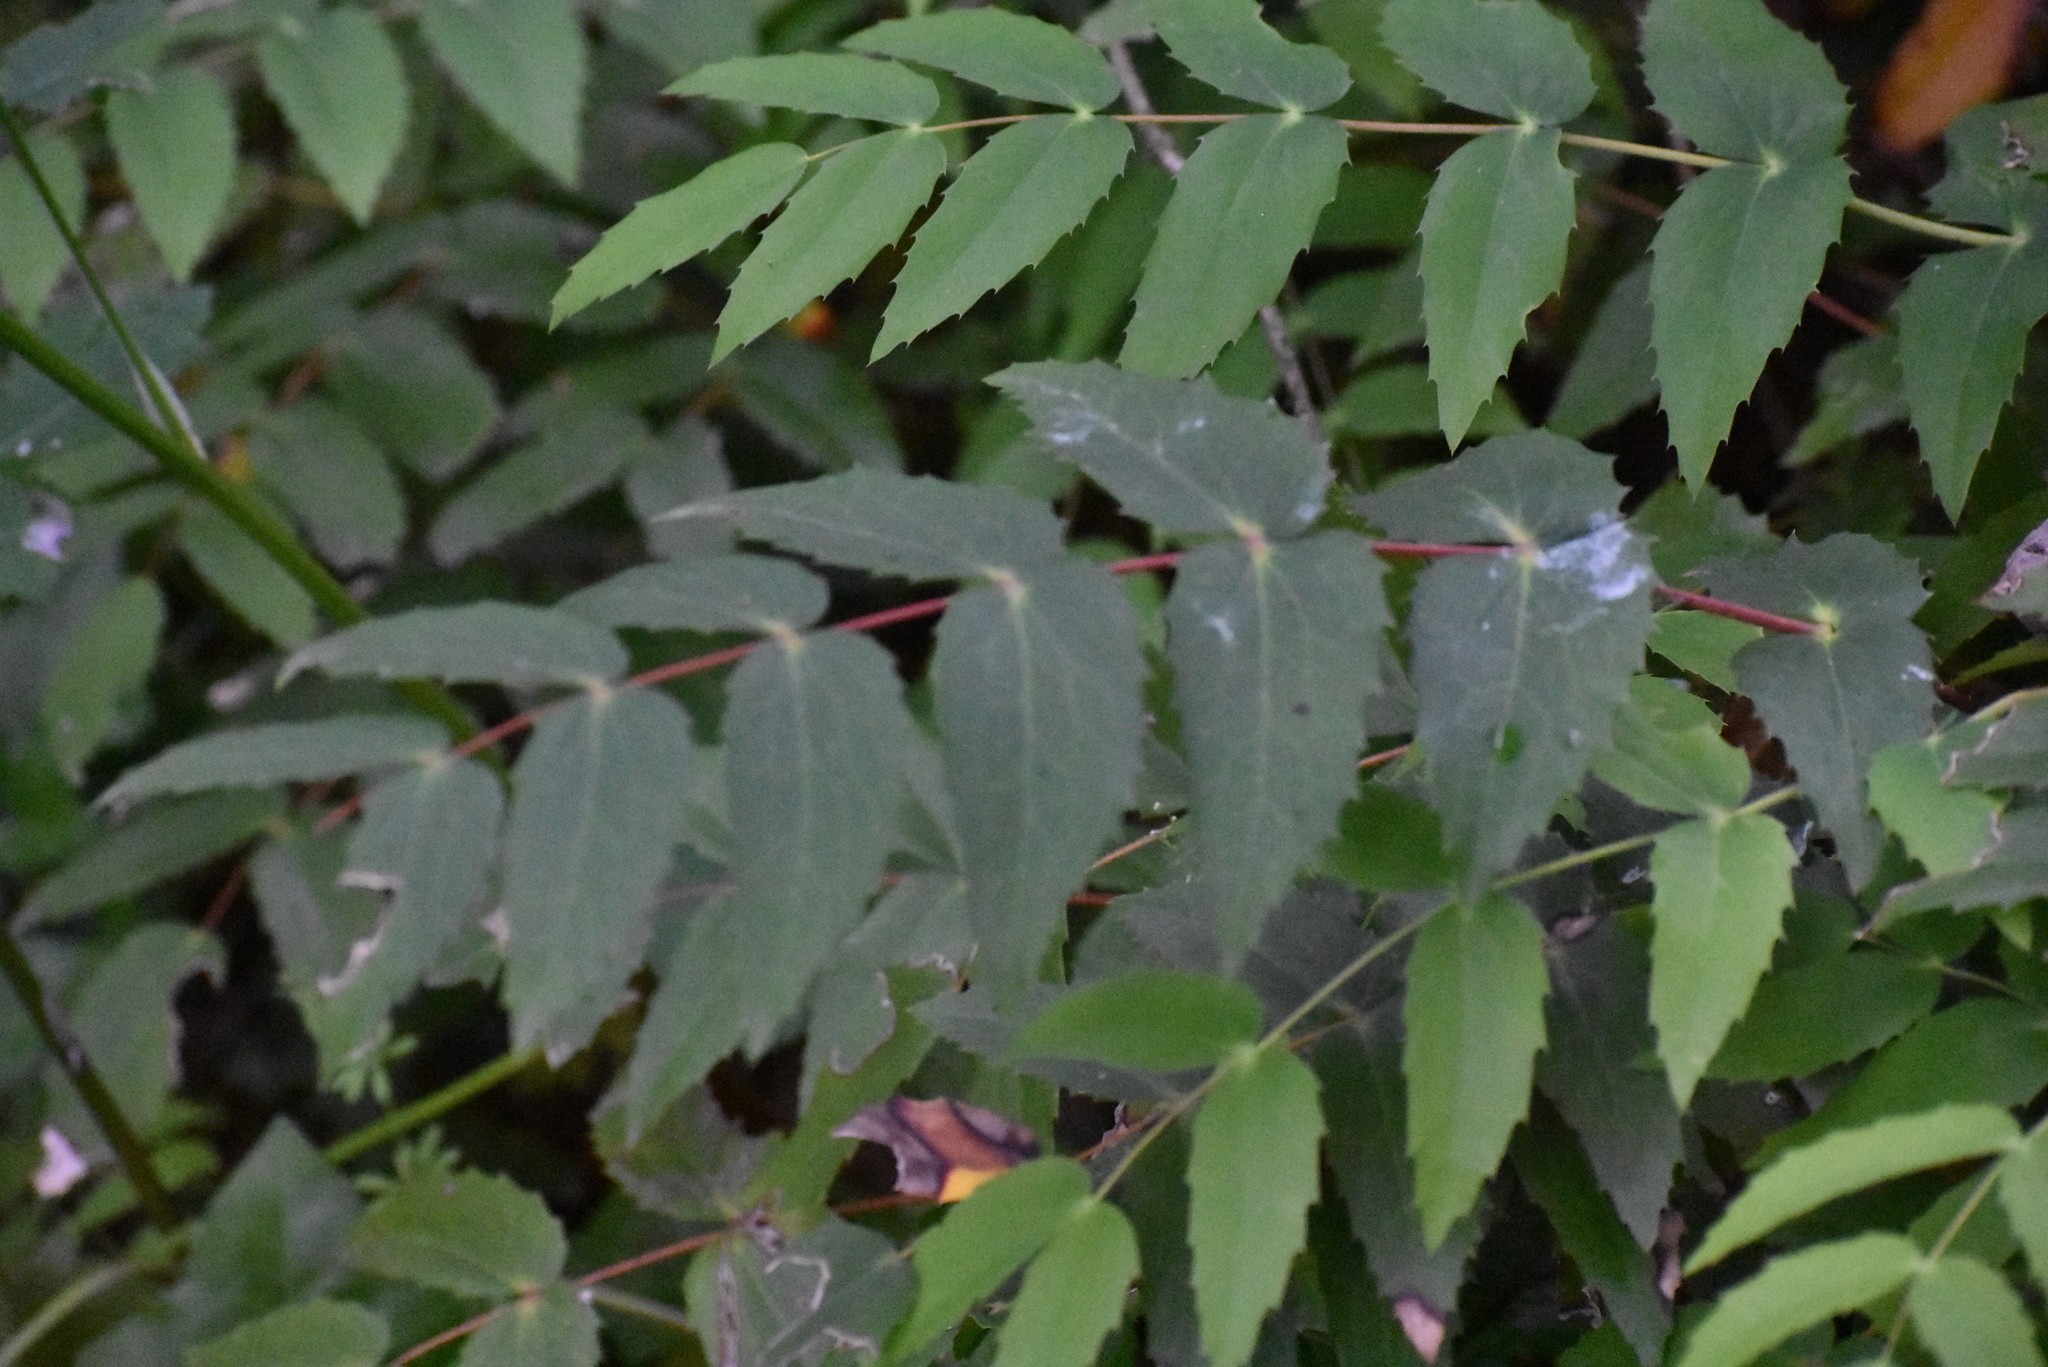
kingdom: Plantae
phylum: Tracheophyta
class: Magnoliopsida
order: Ranunculales
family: Berberidaceae
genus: Mahonia
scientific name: Mahonia nervosa
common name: Cascade oregon-grape
